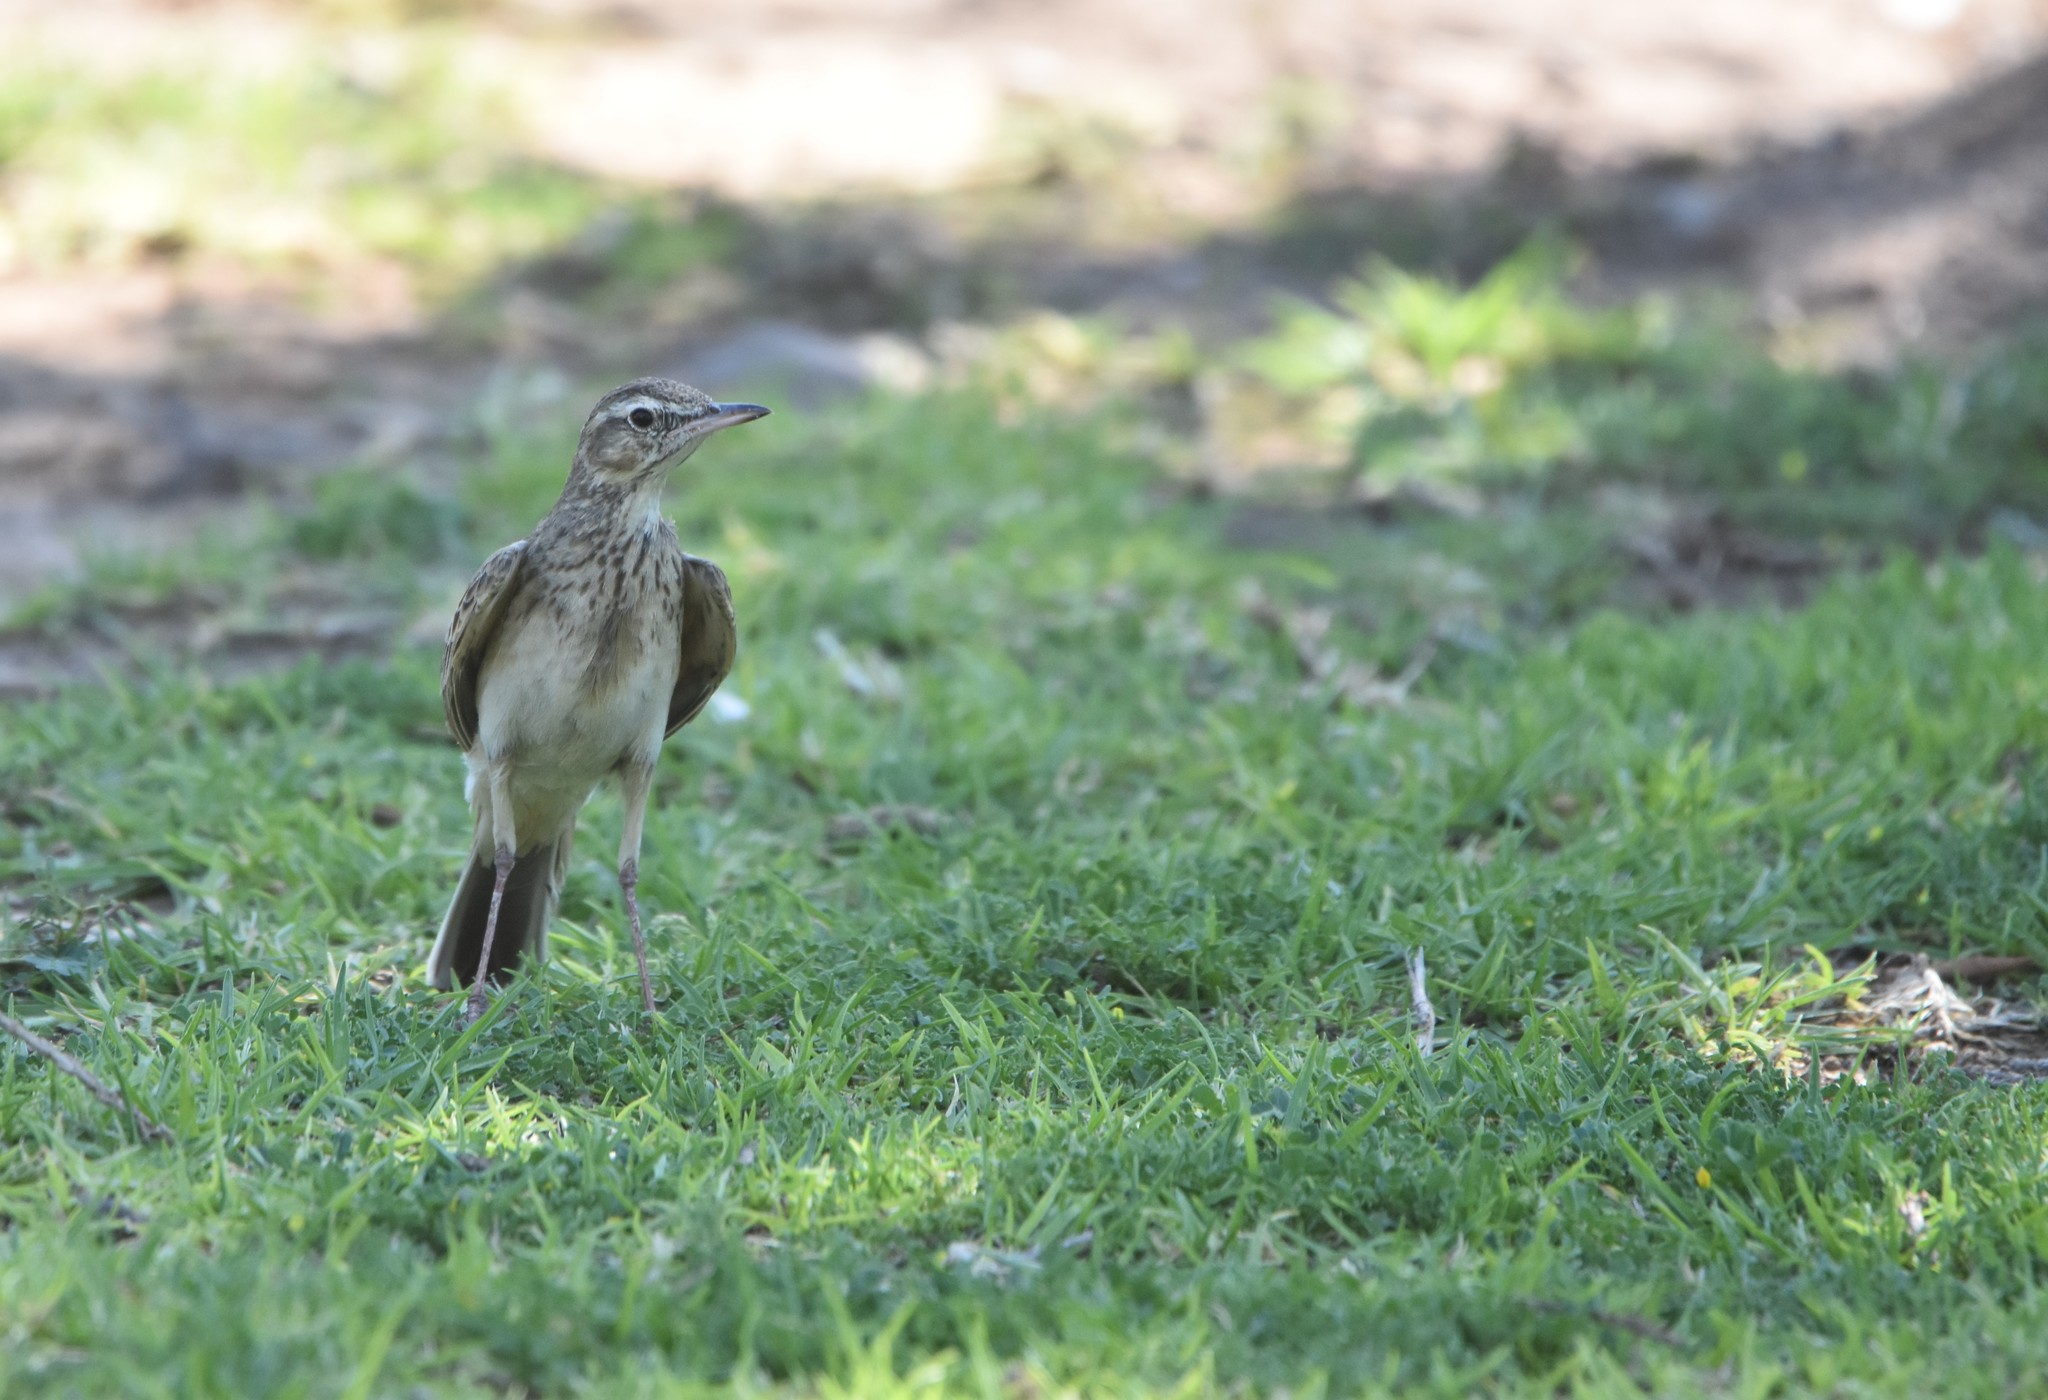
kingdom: Animalia
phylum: Chordata
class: Aves
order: Passeriformes
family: Motacillidae
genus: Anthus
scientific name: Anthus nicholsoni
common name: Nicholson's pipit
